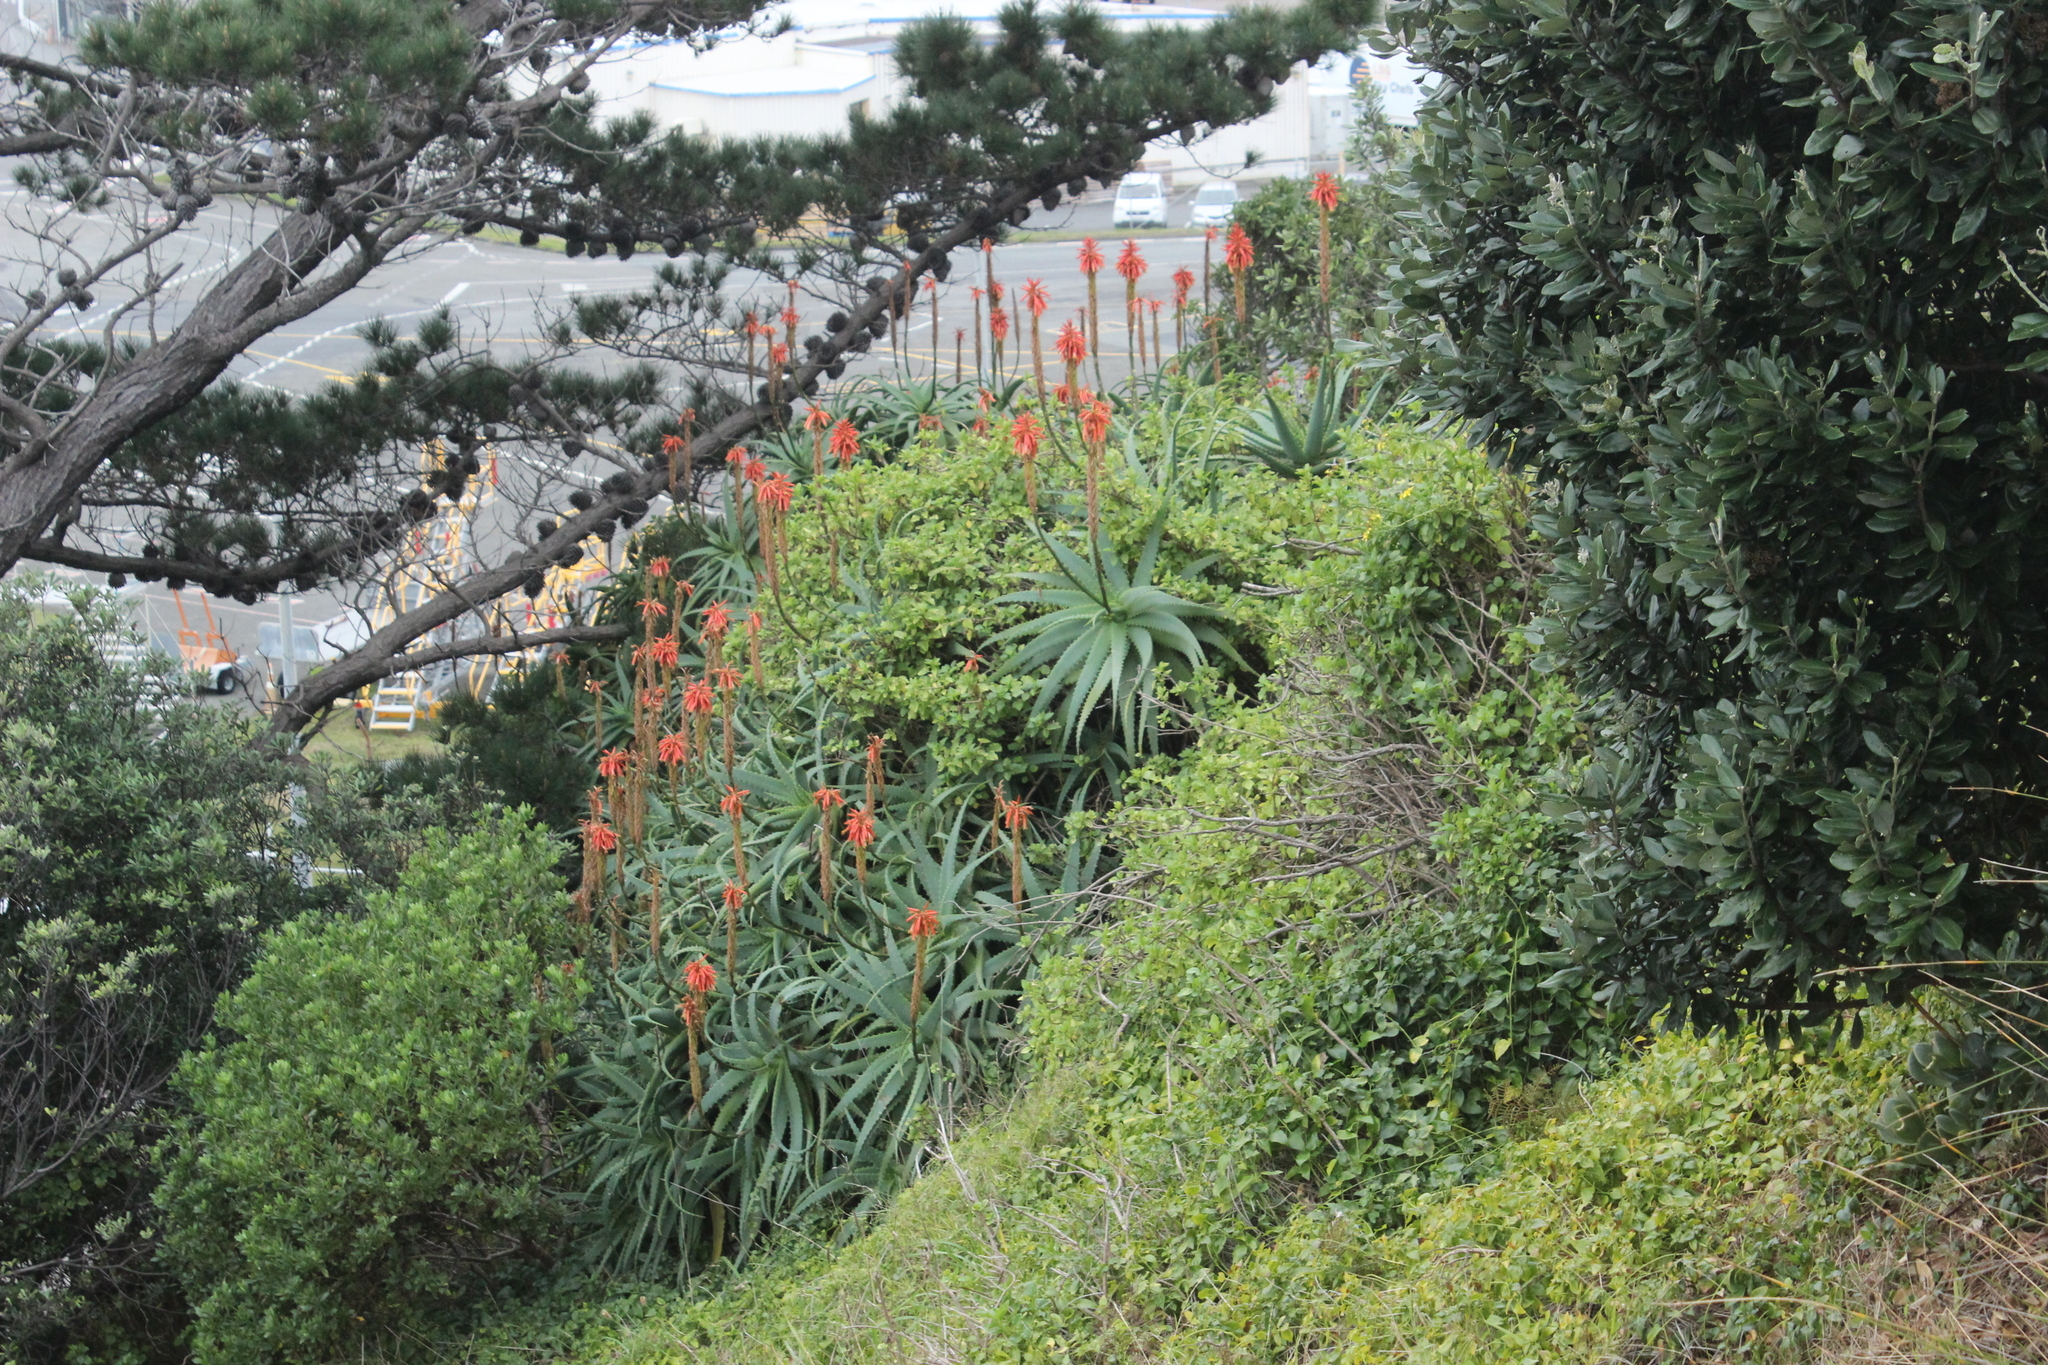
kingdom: Plantae
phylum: Tracheophyta
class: Liliopsida
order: Asparagales
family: Asphodelaceae
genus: Aloe
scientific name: Aloe arborescens
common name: Candelabra aloe
